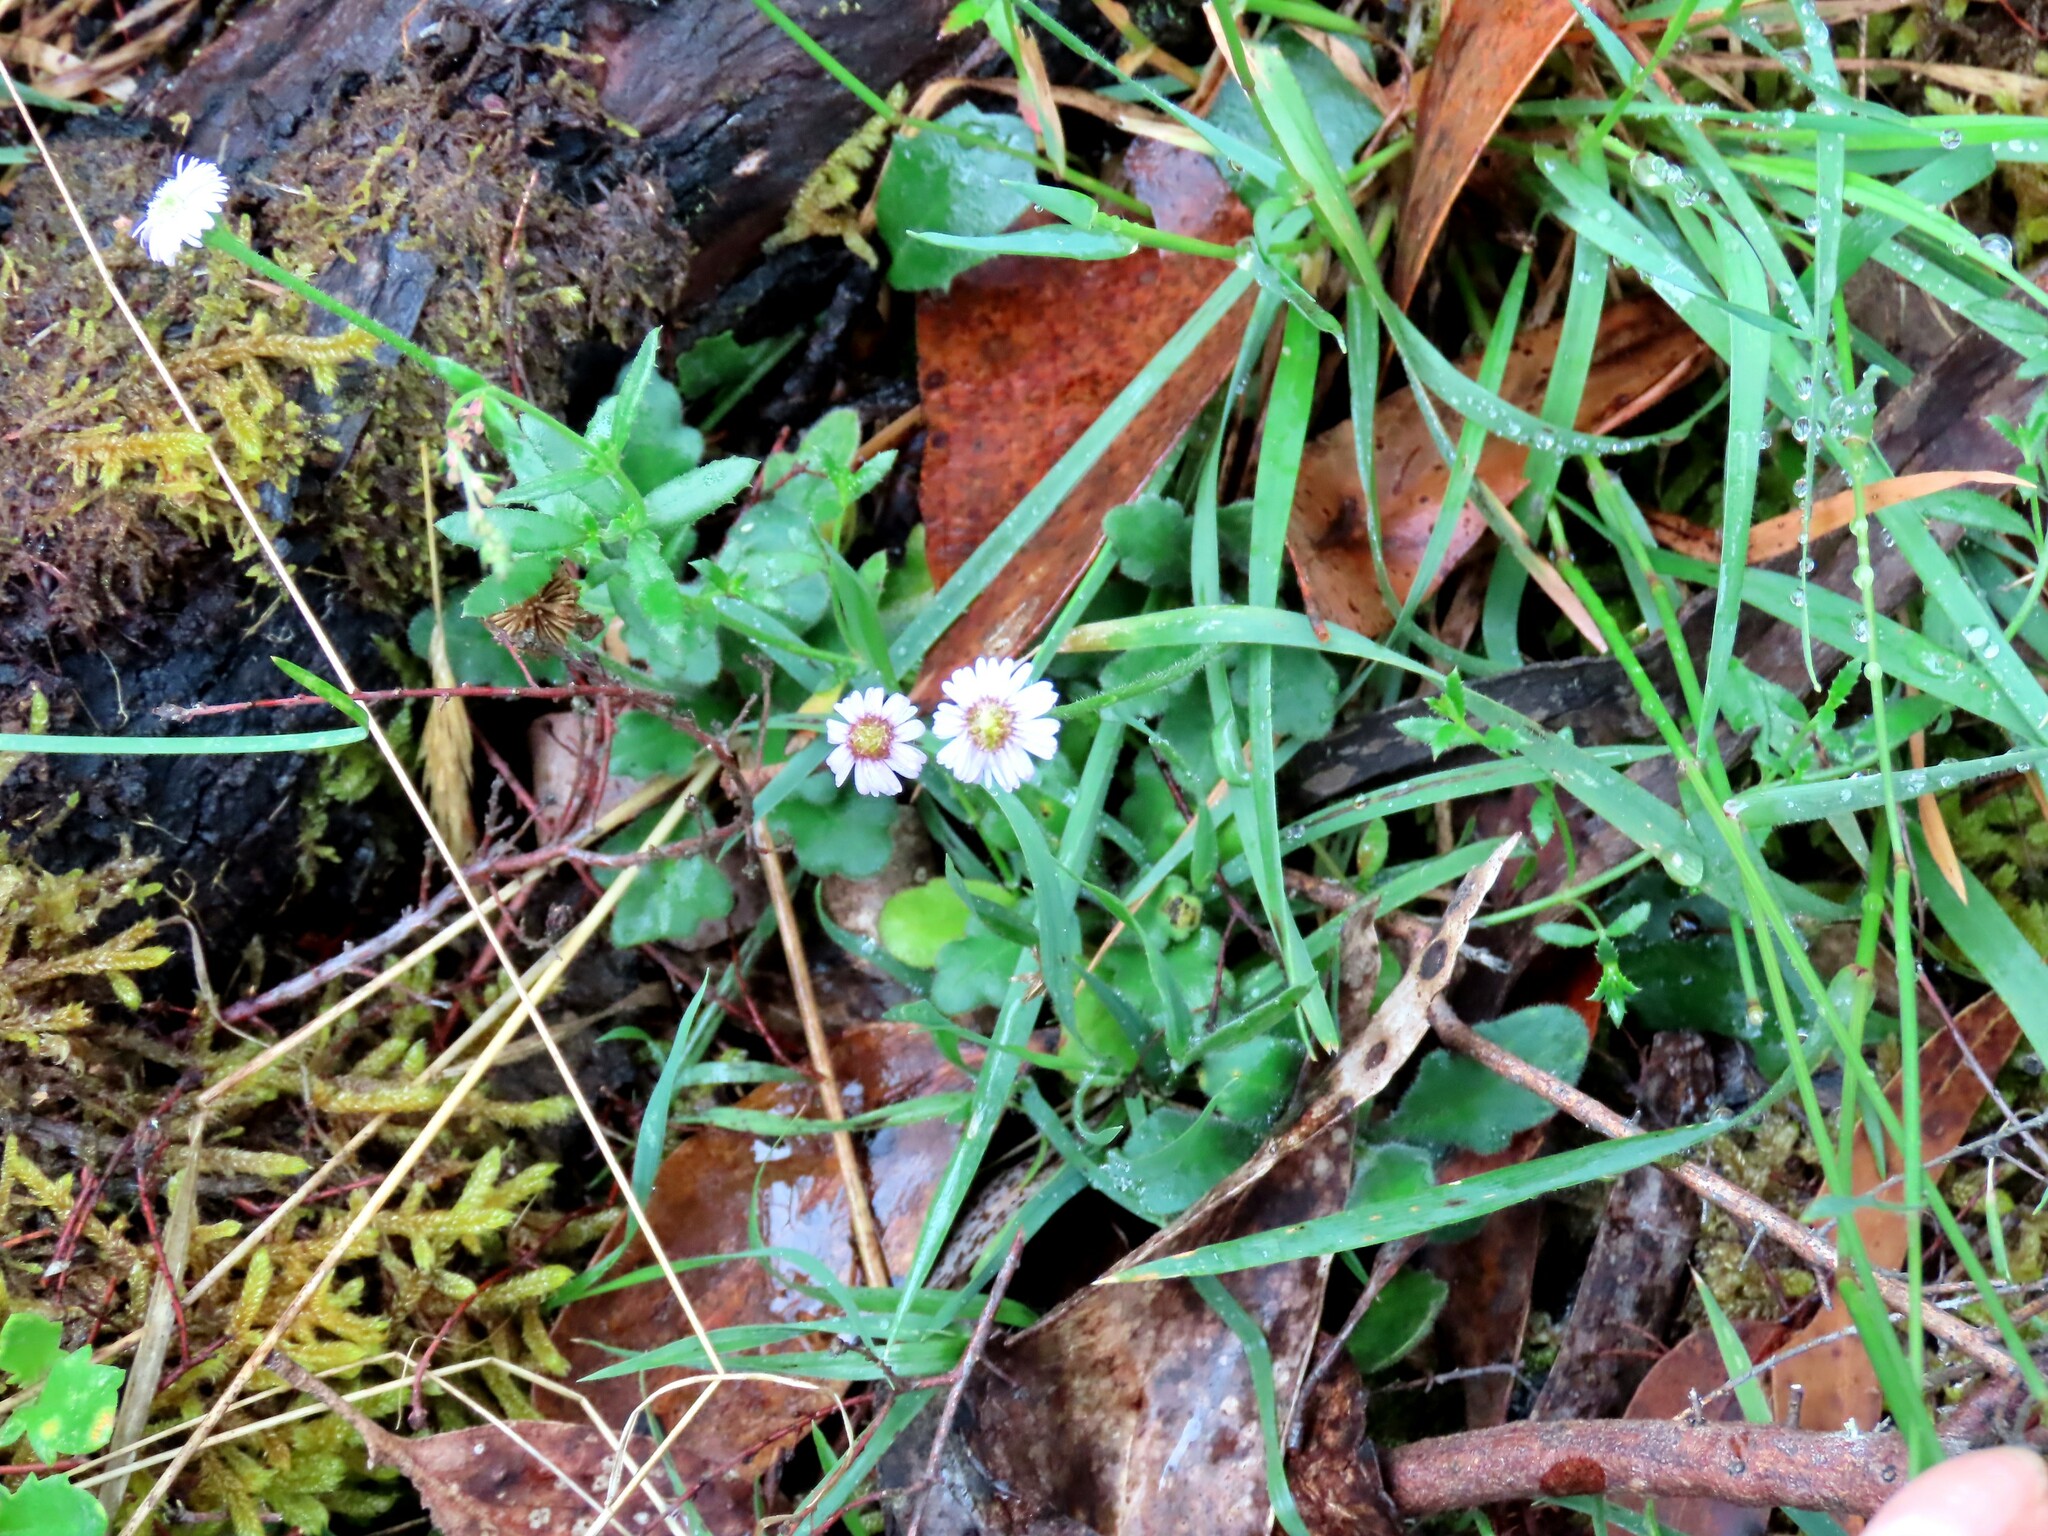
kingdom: Plantae
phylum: Tracheophyta
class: Magnoliopsida
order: Asterales
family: Asteraceae
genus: Lagenophora
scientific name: Lagenophora stipitata
